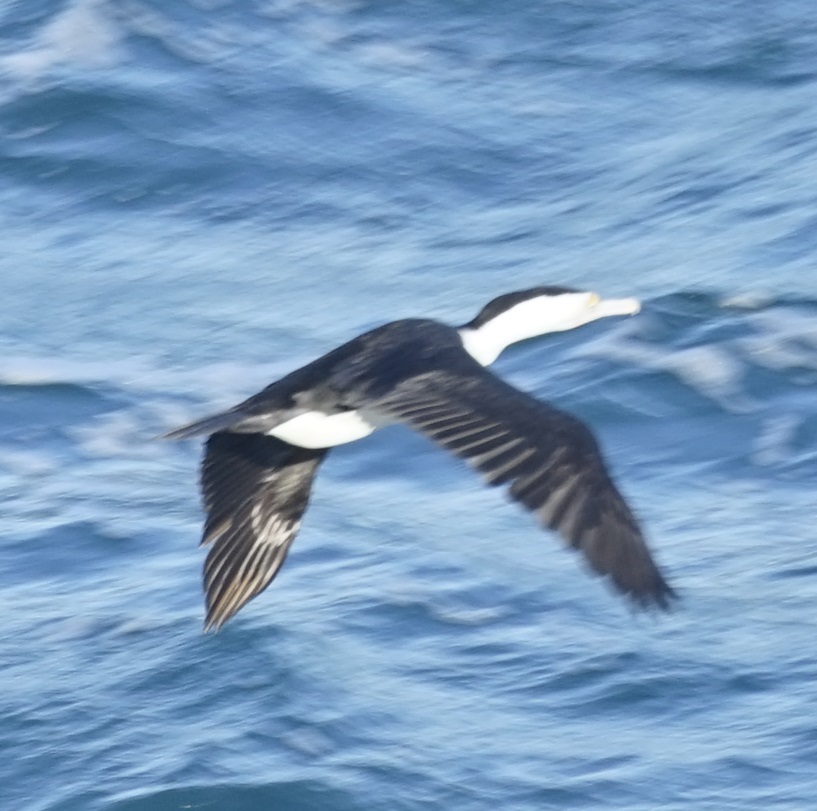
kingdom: Animalia
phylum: Chordata
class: Aves
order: Suliformes
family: Phalacrocoracidae
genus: Phalacrocorax
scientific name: Phalacrocorax varius
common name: Pied cormorant
